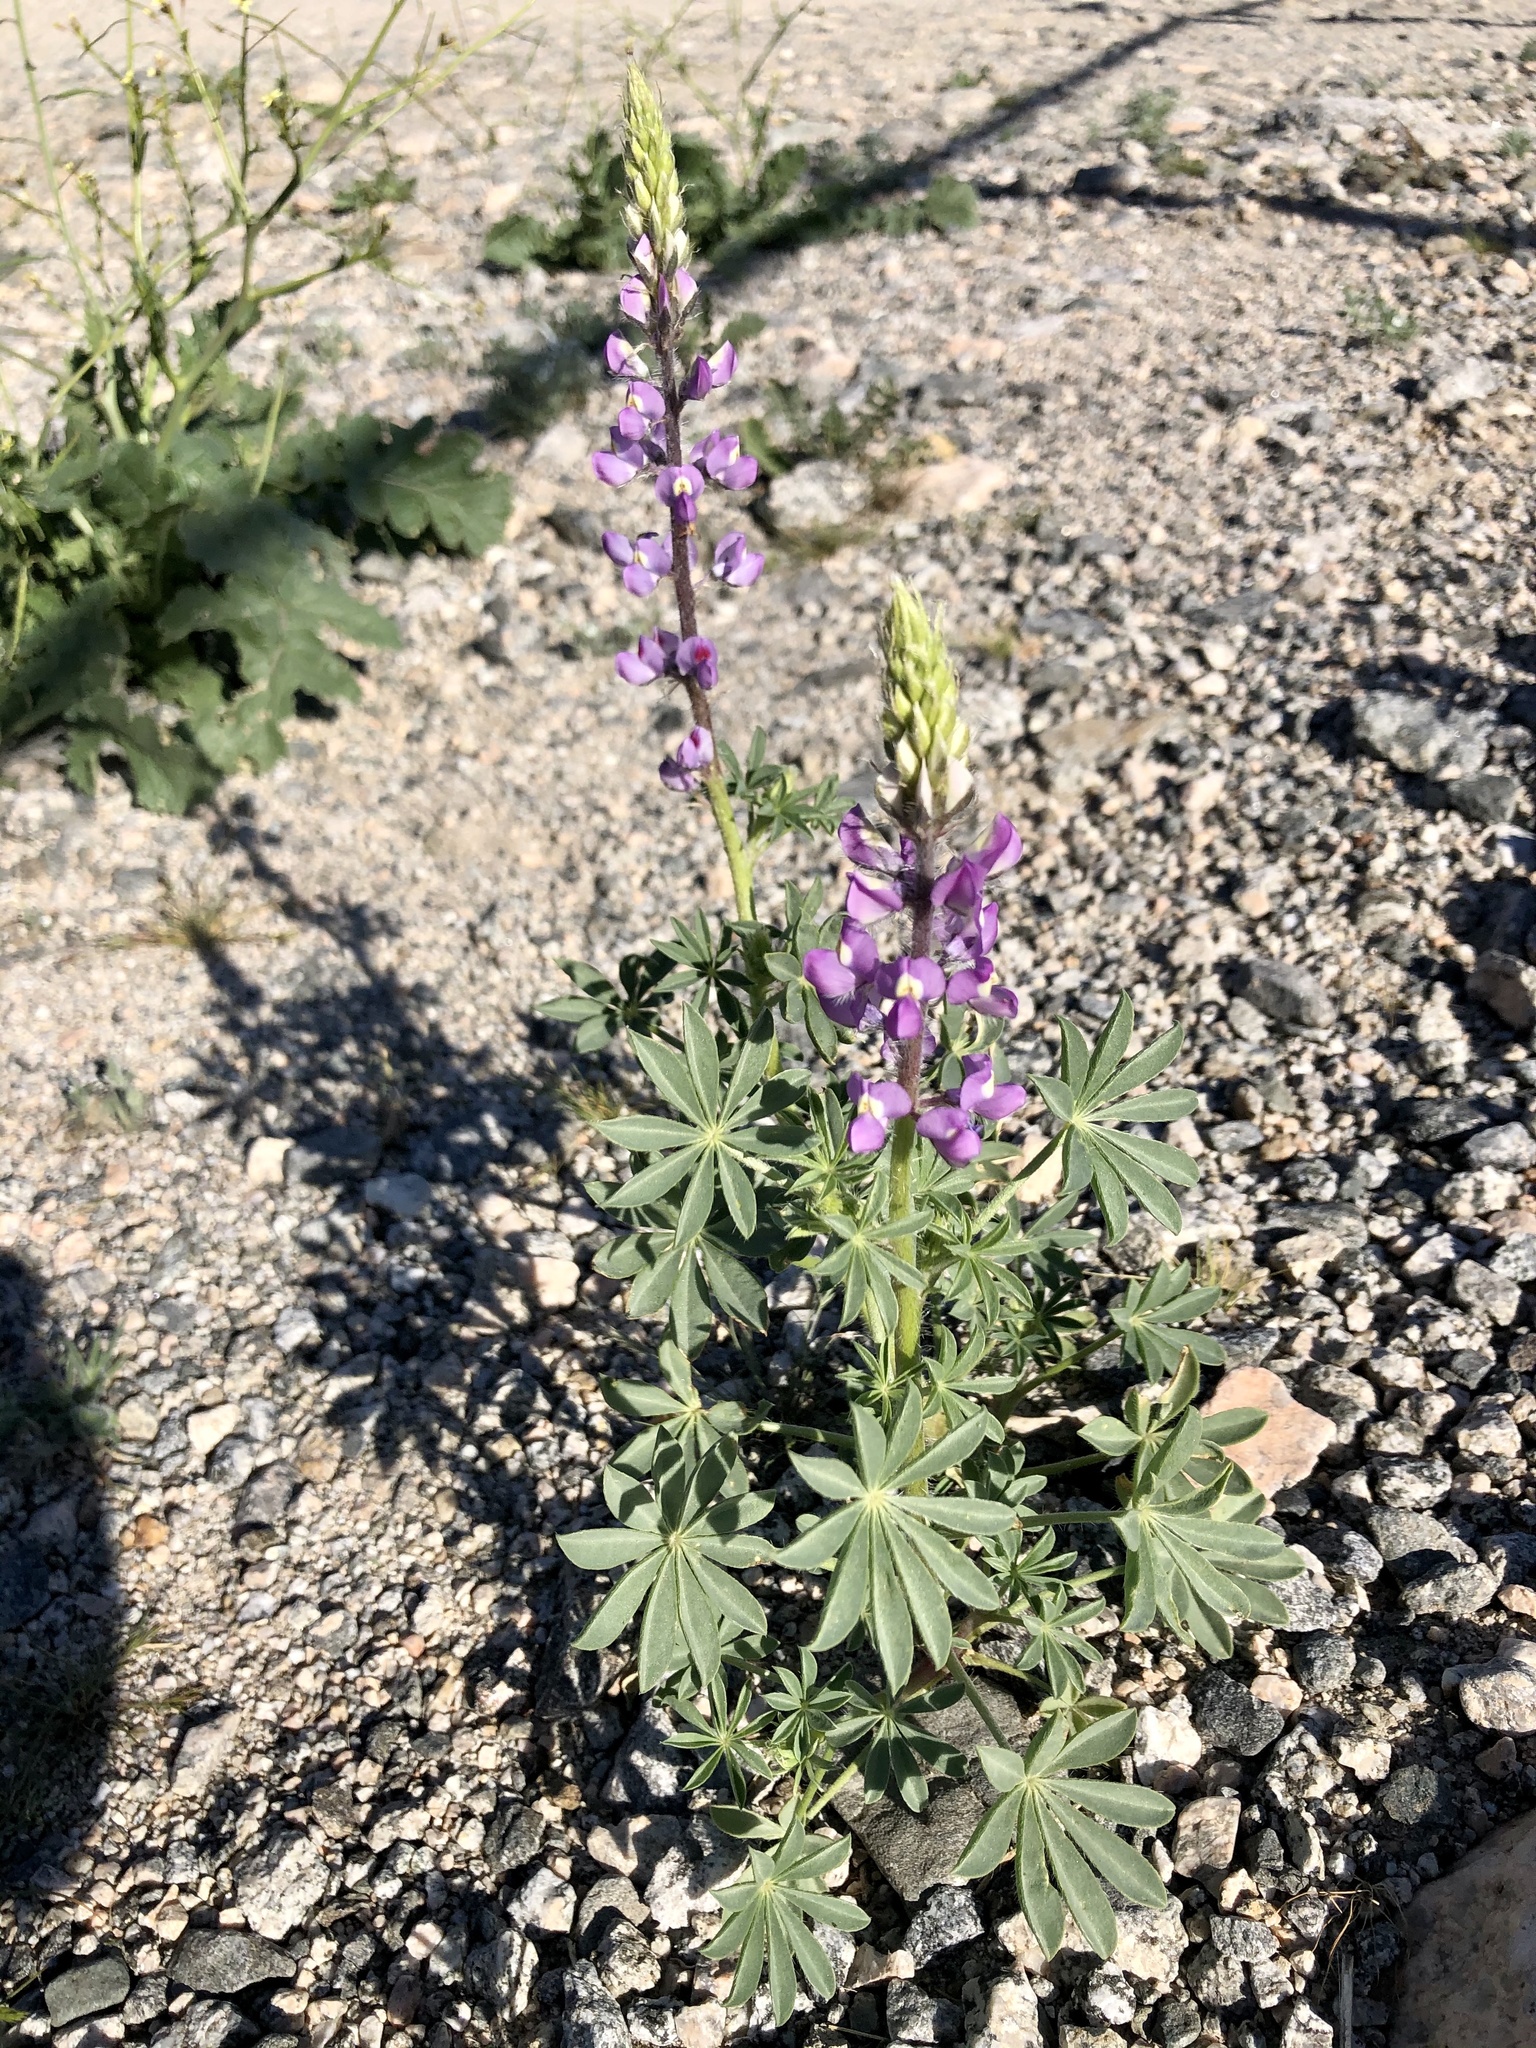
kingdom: Plantae
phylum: Tracheophyta
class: Magnoliopsida
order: Fabales
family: Fabaceae
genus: Lupinus
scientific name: Lupinus arizonicus
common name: Arizona lupine
